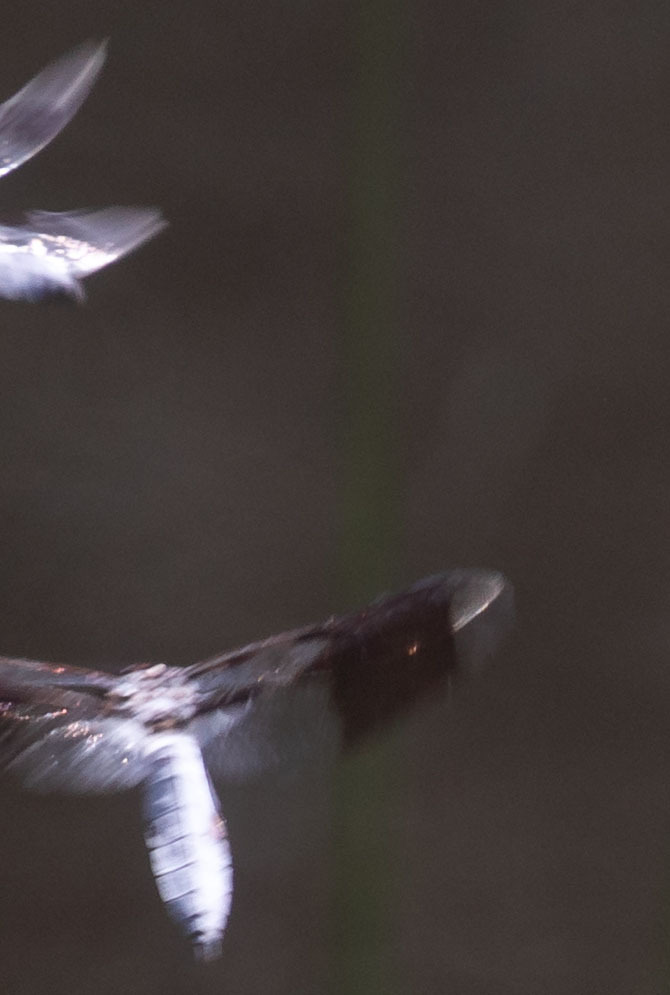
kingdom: Animalia
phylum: Arthropoda
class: Insecta
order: Odonata
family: Libellulidae
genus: Plathemis
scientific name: Plathemis lydia
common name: Common whitetail
